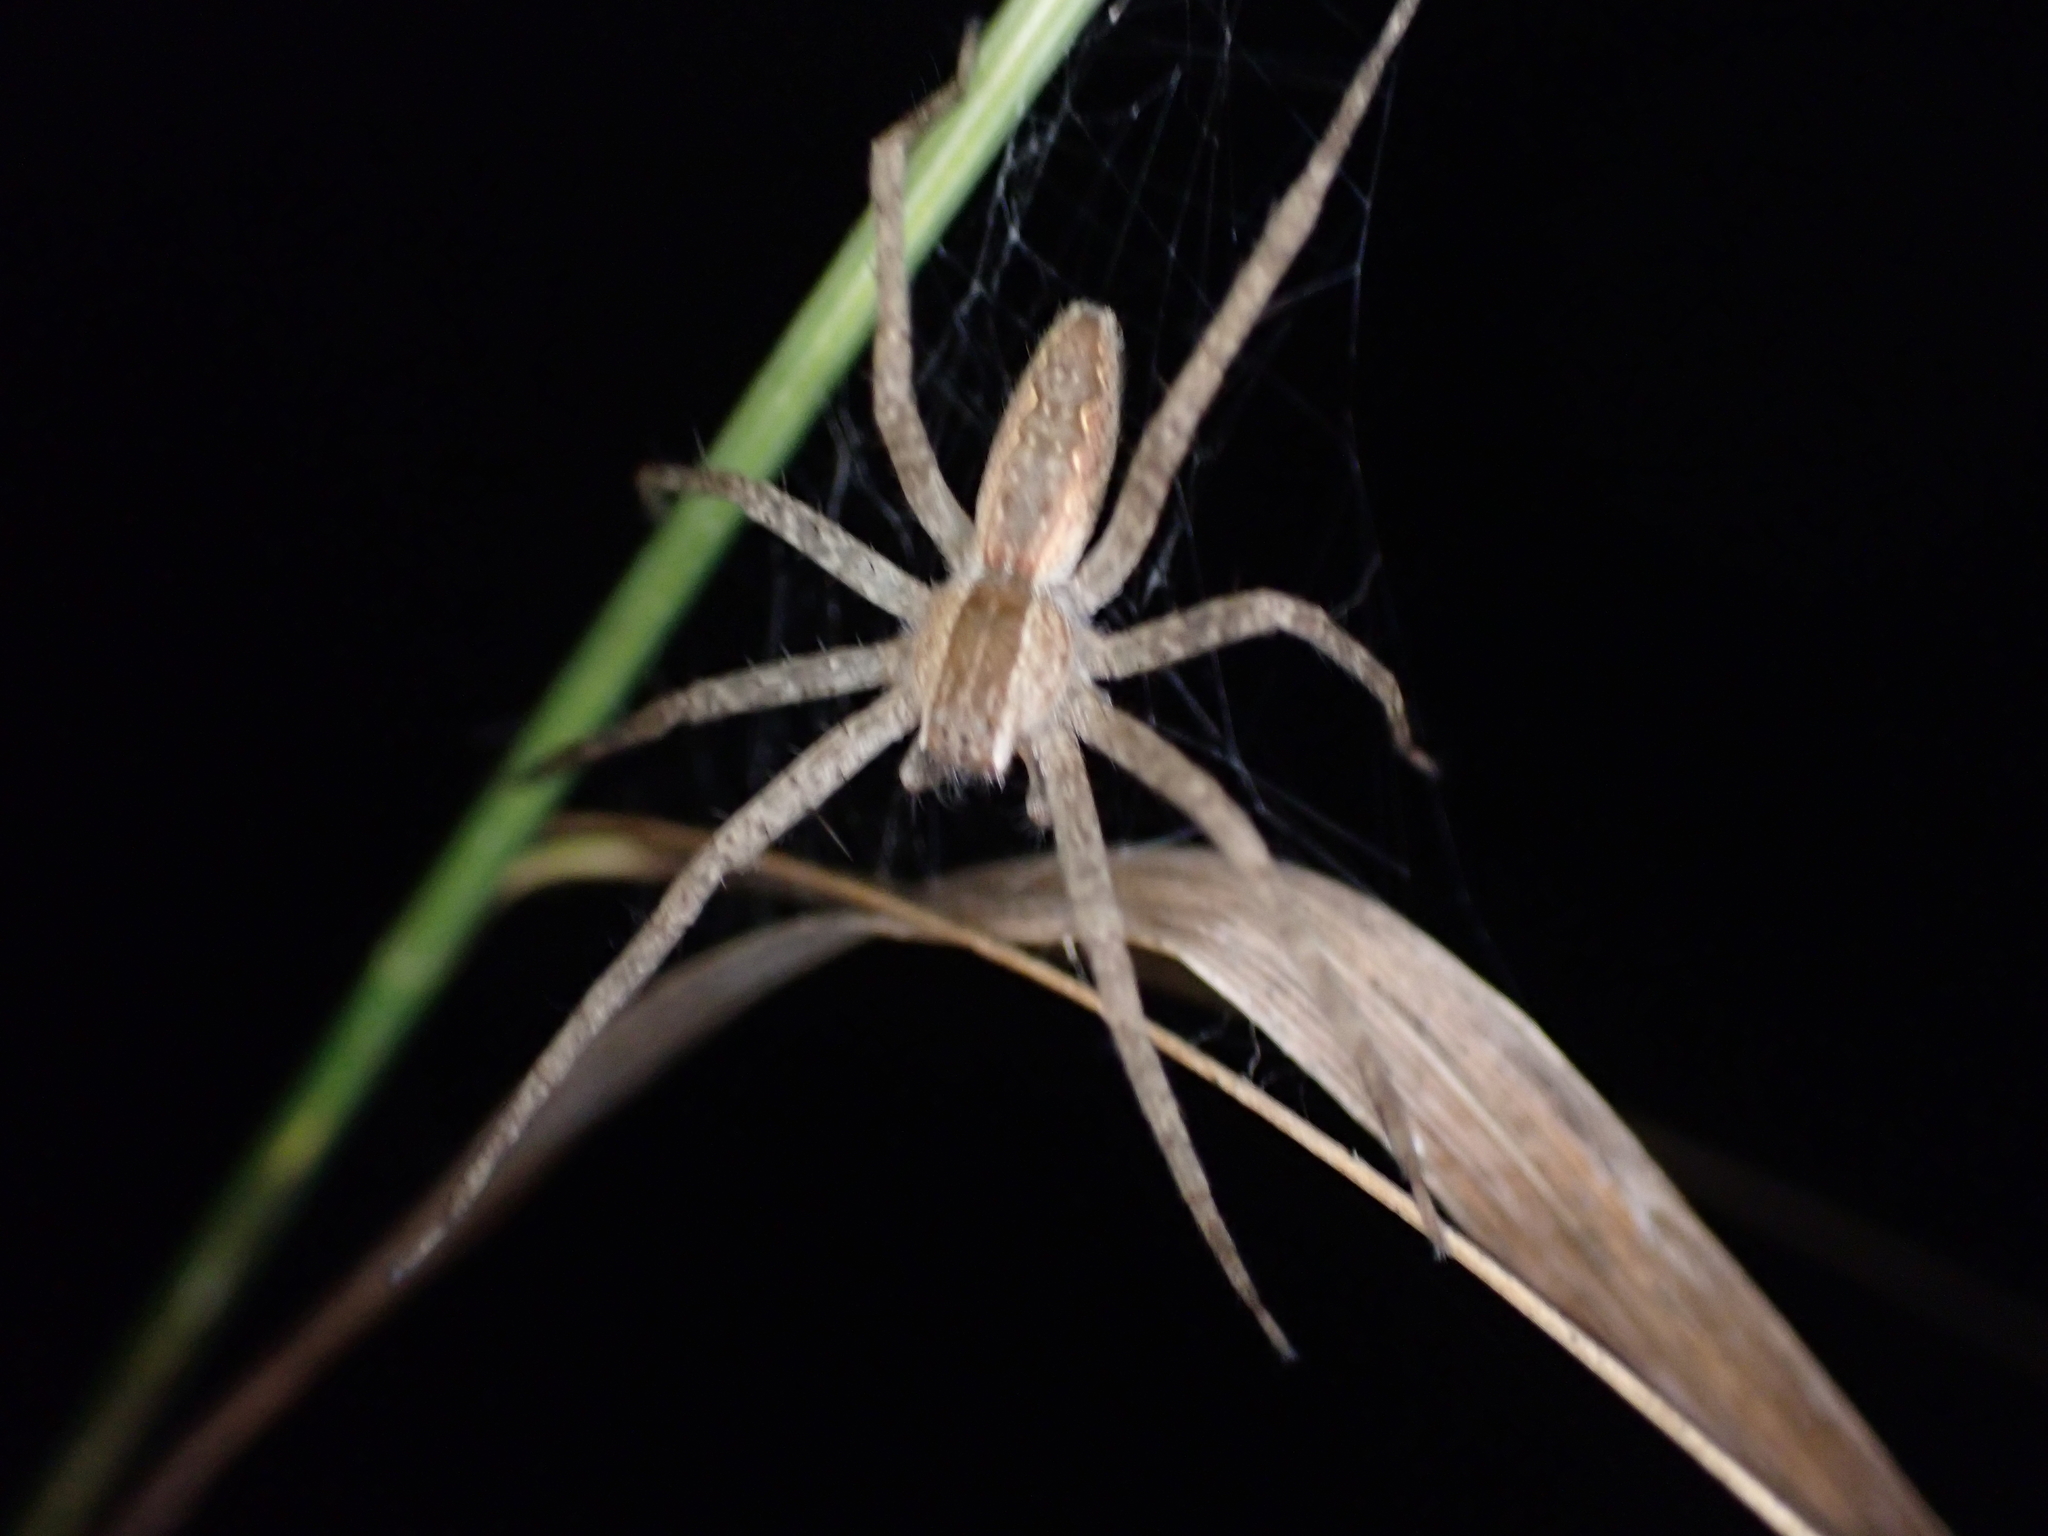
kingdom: Animalia
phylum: Arthropoda
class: Arachnida
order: Araneae
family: Pisauridae
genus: Pisaurina
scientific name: Pisaurina mira
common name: American nursery web spider
